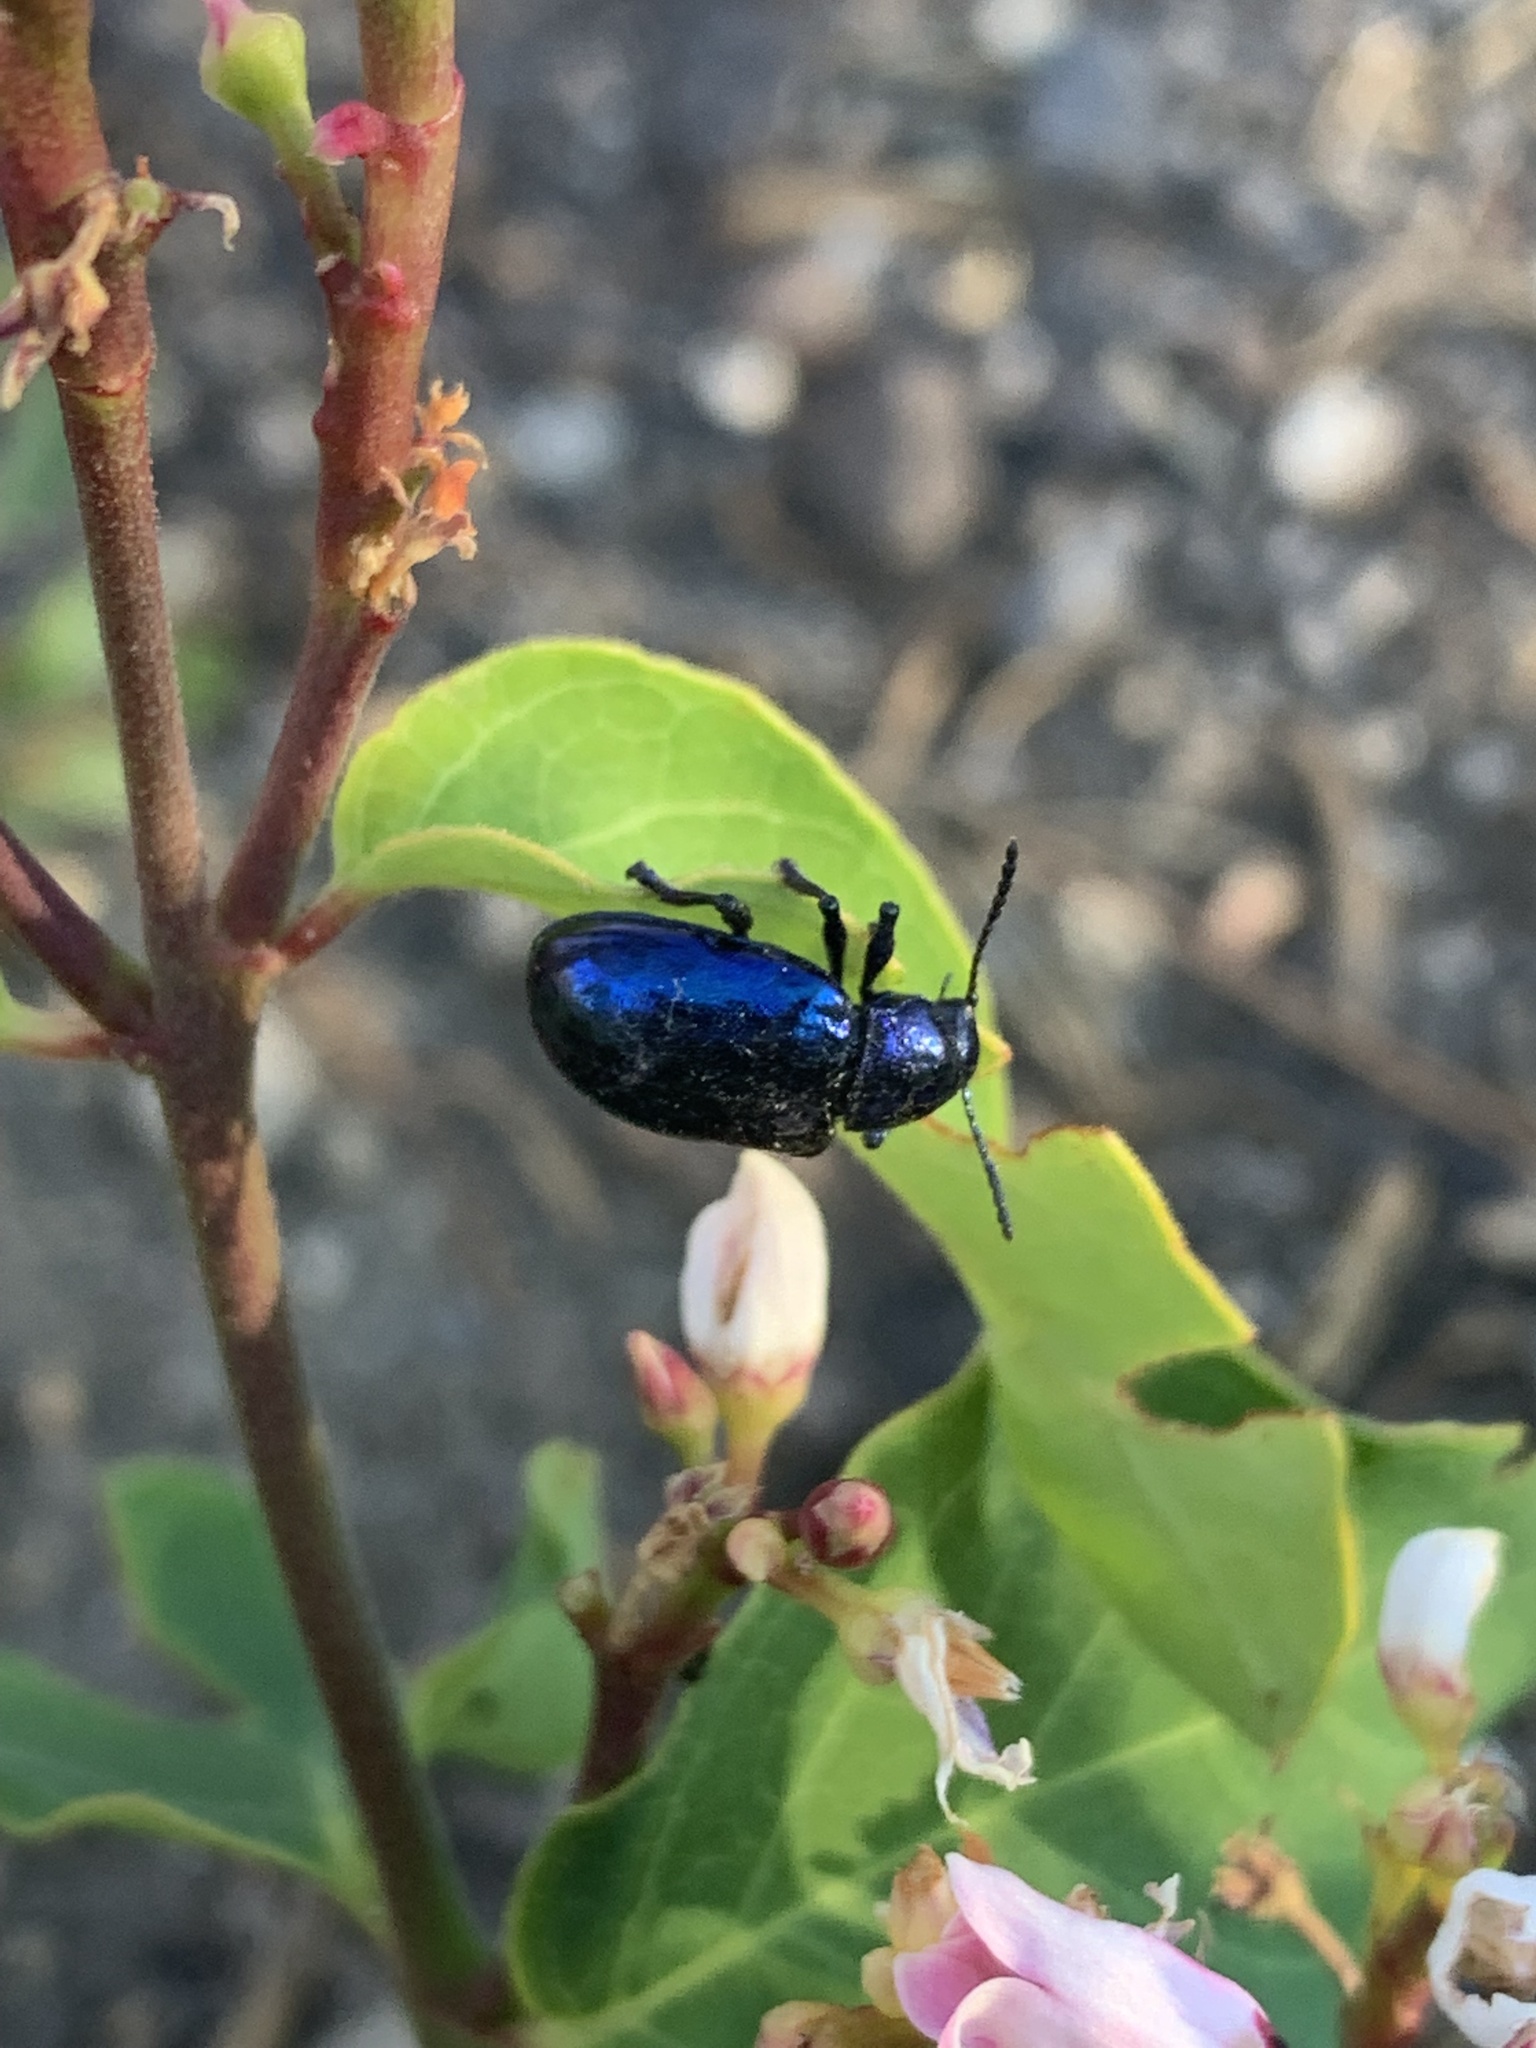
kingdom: Animalia
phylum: Arthropoda
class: Insecta
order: Coleoptera
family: Chrysomelidae
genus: Chrysochus
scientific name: Chrysochus cobaltinus
